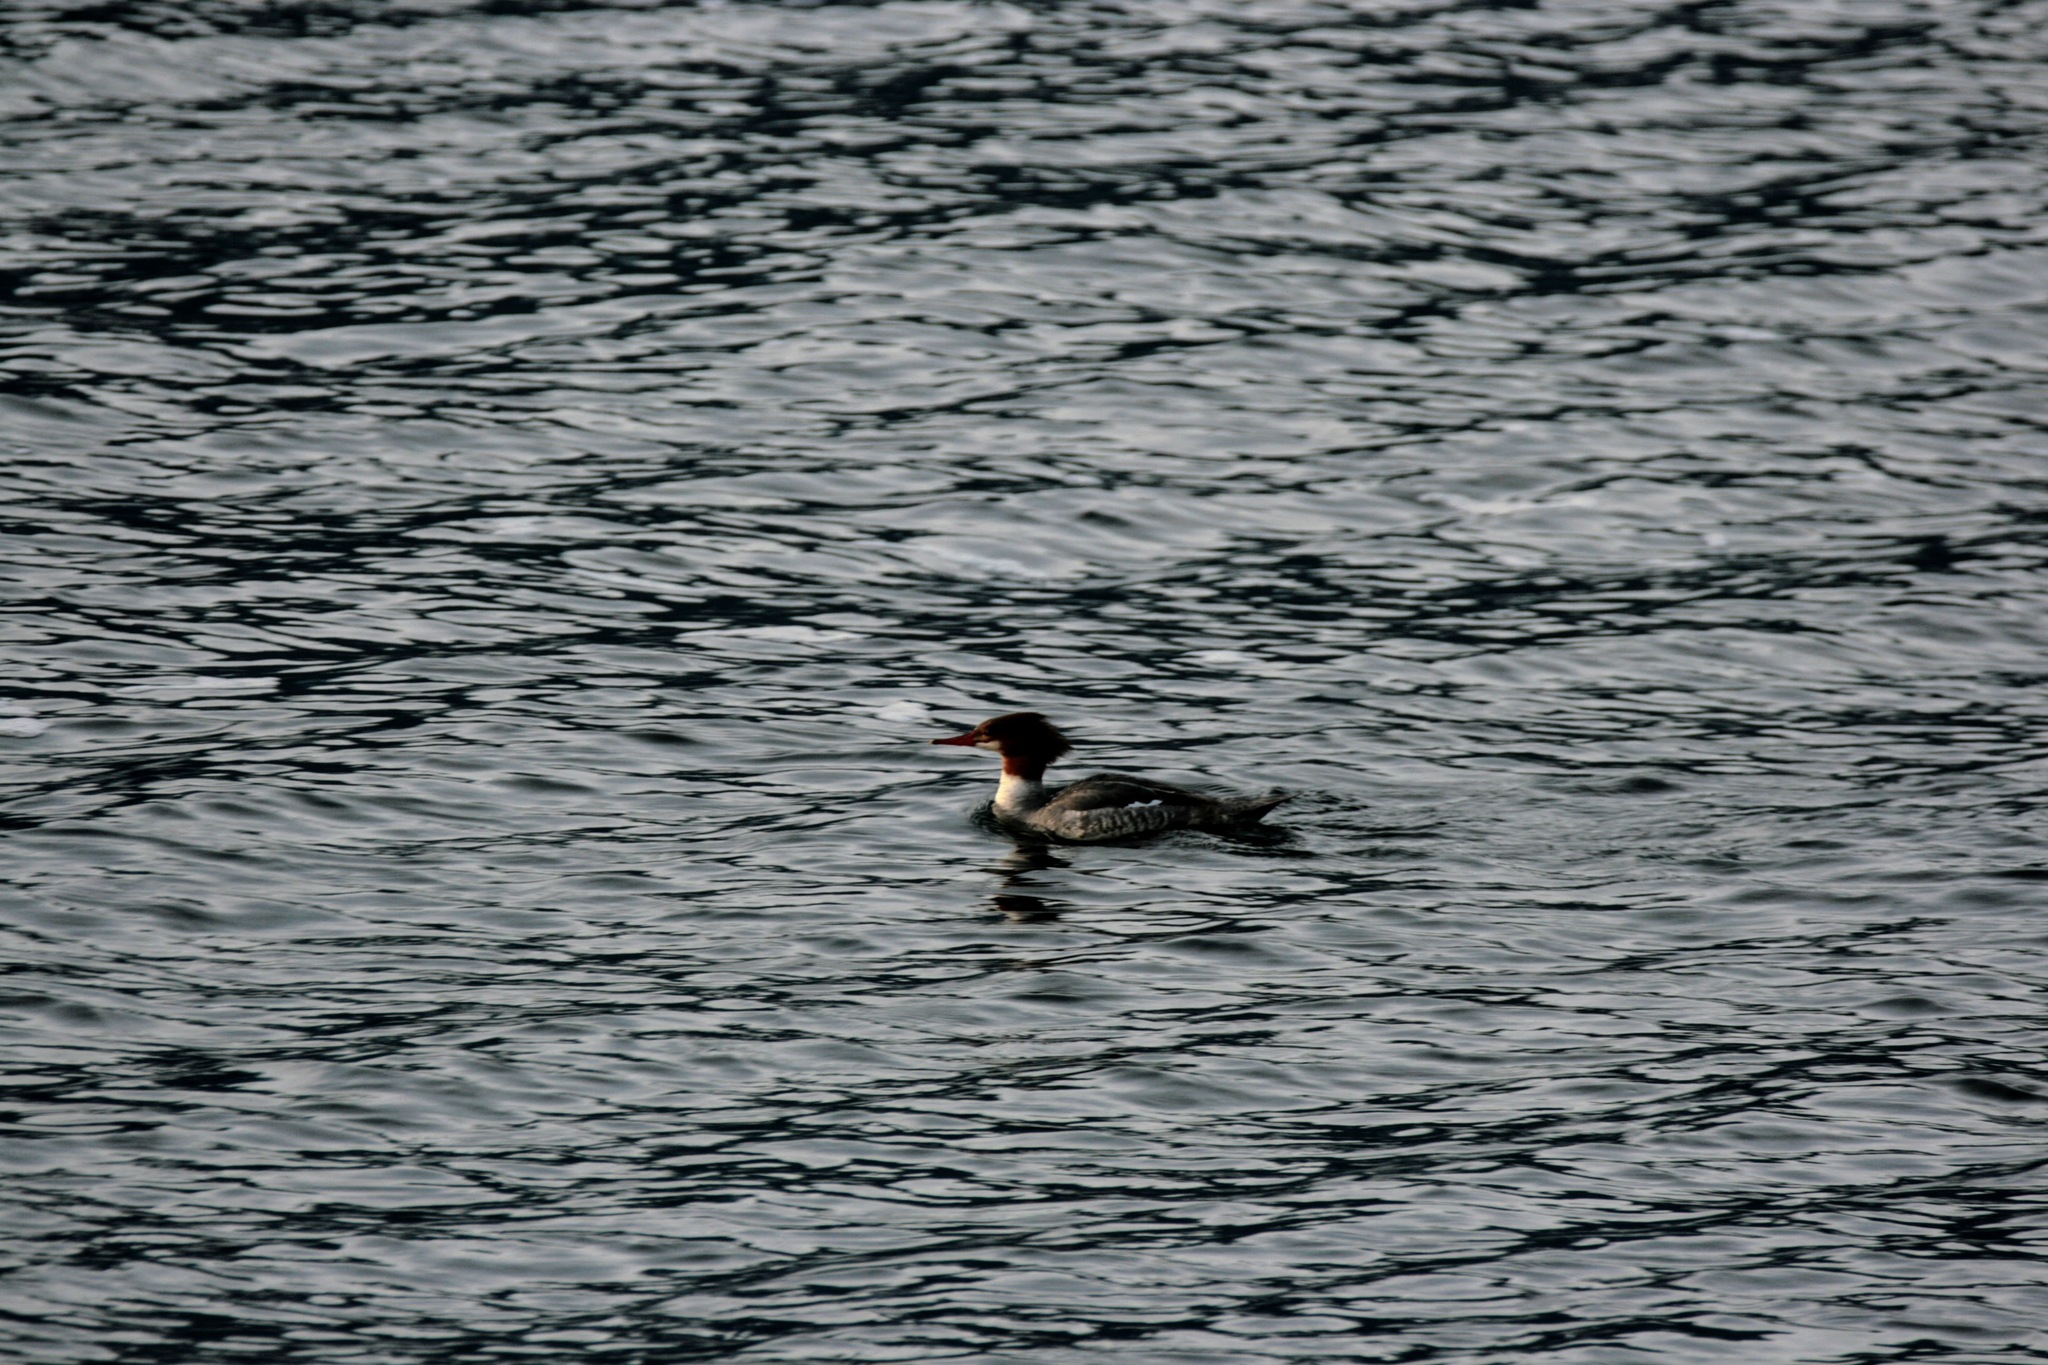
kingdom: Animalia
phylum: Chordata
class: Aves
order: Anseriformes
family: Anatidae
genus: Mergus
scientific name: Mergus merganser
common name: Common merganser
